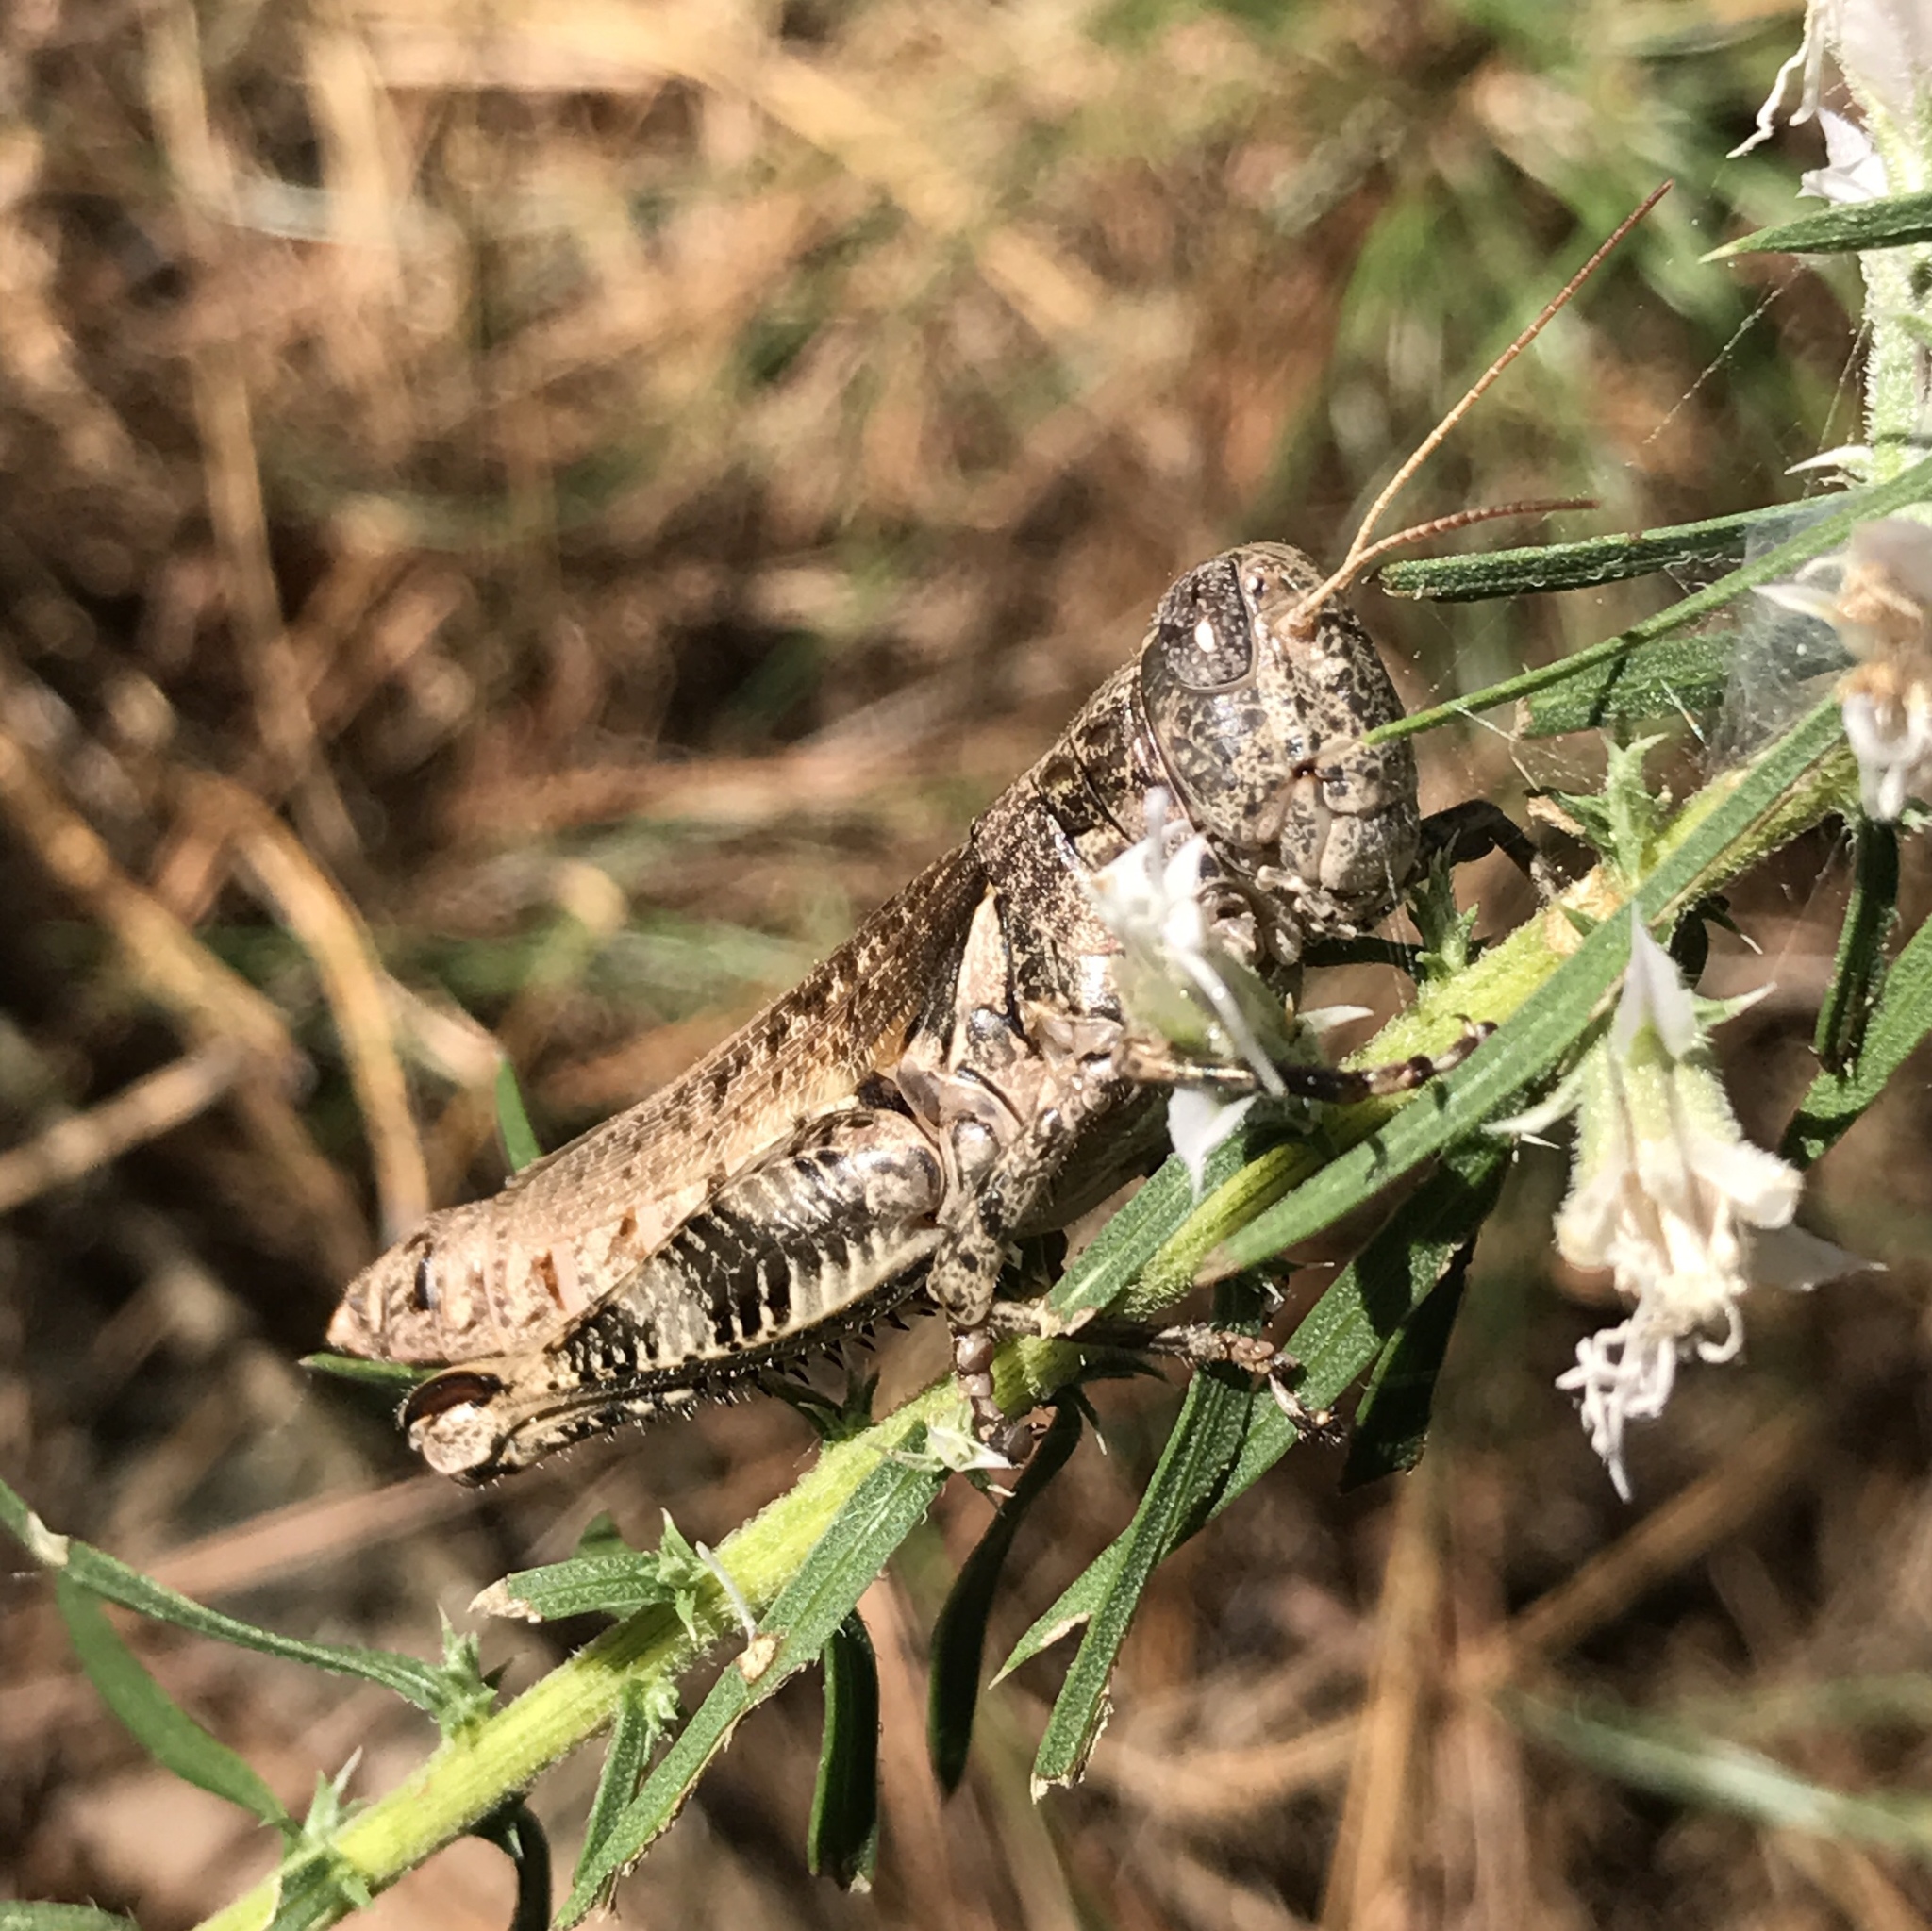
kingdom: Animalia
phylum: Arthropoda
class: Insecta
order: Orthoptera
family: Acrididae
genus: Melanoplus
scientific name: Melanoplus punctulatus
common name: Pine-tree spur-throat grasshopper
